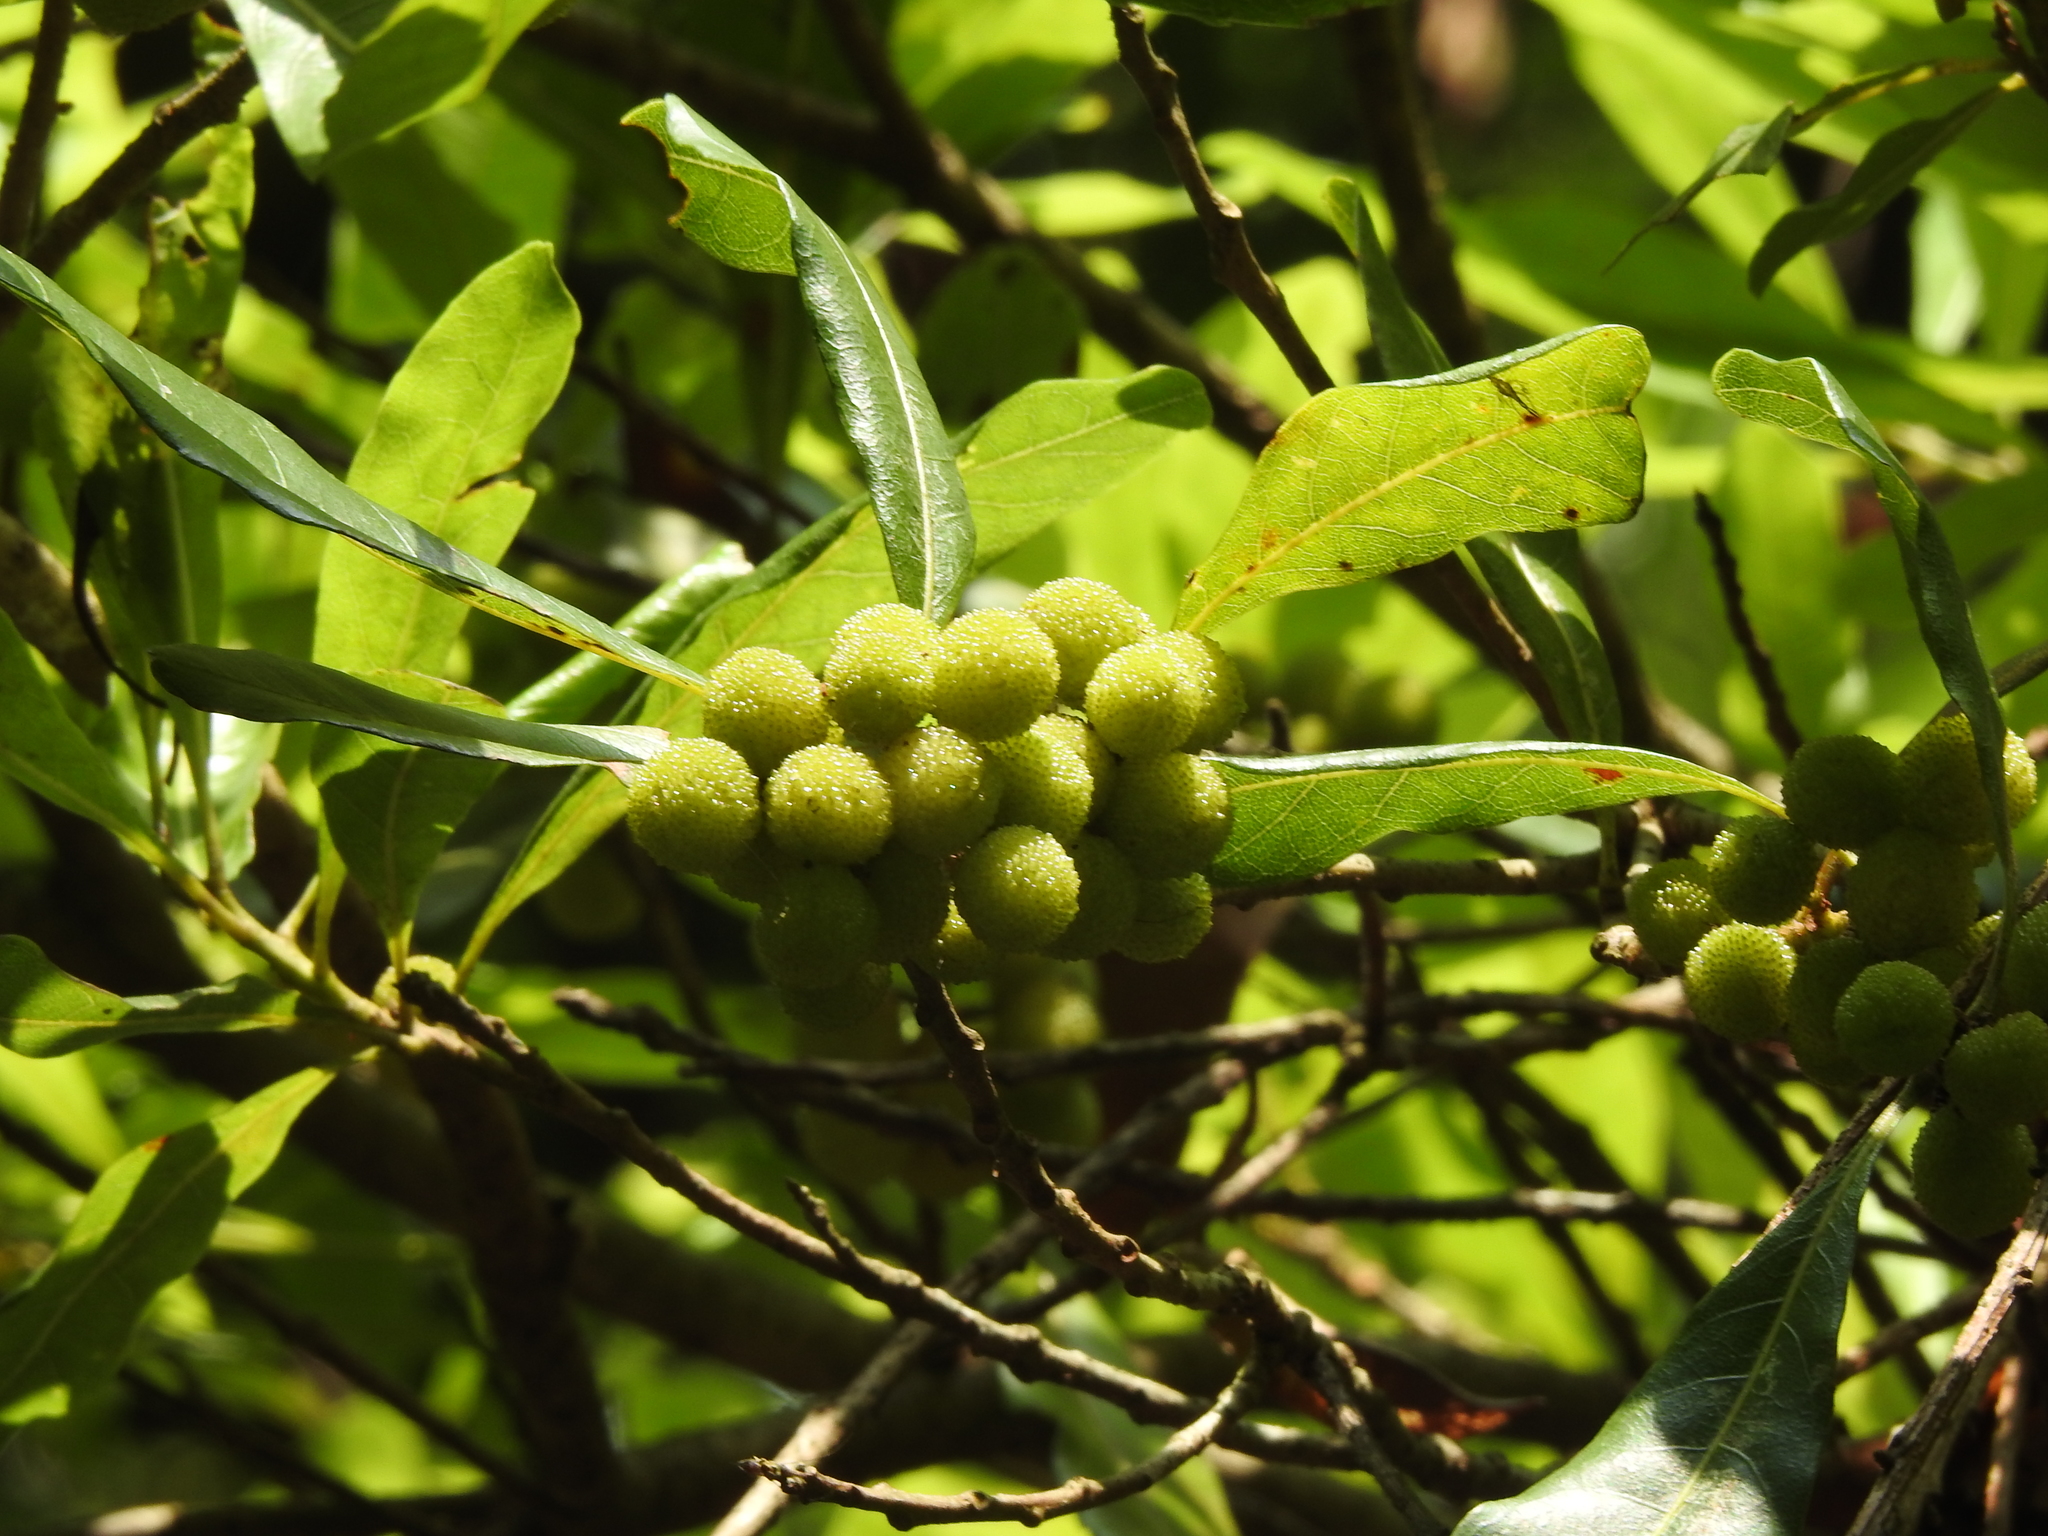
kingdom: Plantae
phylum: Tracheophyta
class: Magnoliopsida
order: Fagales
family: Myricaceae
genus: Morella
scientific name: Morella rubra
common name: Red bayberry
